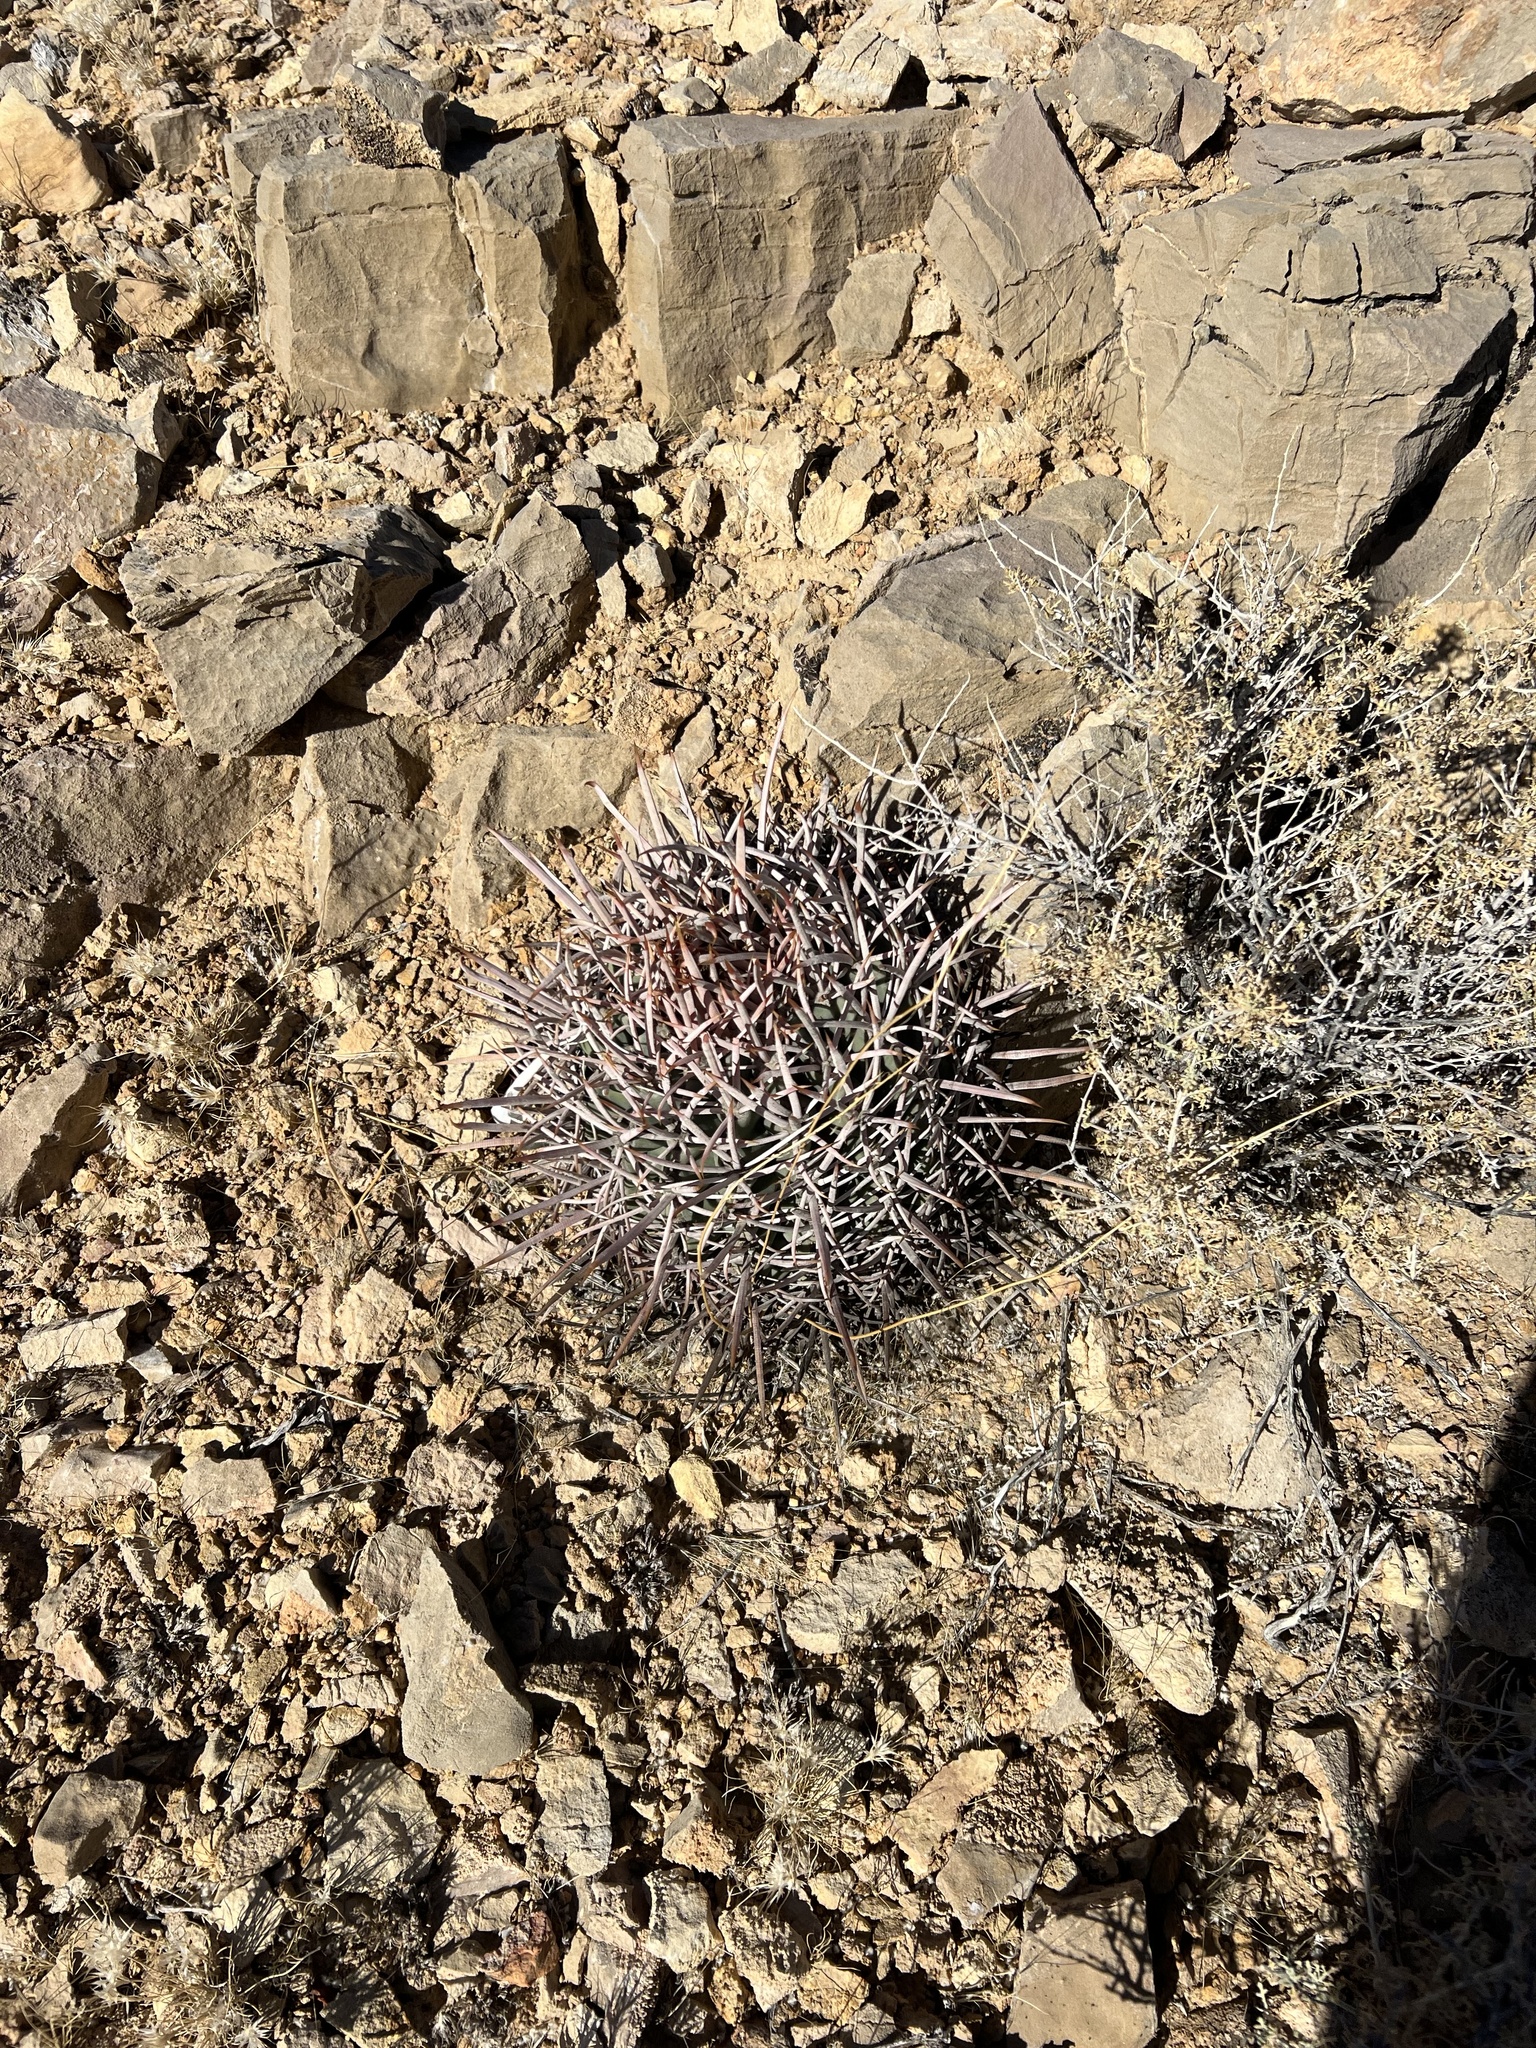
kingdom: Plantae
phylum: Tracheophyta
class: Magnoliopsida
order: Caryophyllales
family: Cactaceae
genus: Echinocactus
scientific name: Echinocactus polycephalus
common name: Cottontop cactus
